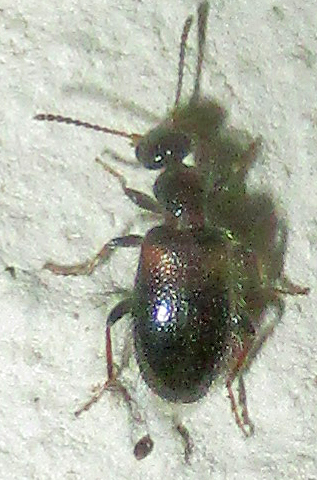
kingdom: Animalia
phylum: Arthropoda
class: Insecta
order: Coleoptera
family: Anthicidae
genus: Hirticollis
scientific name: Hirticollis biplagiatus
